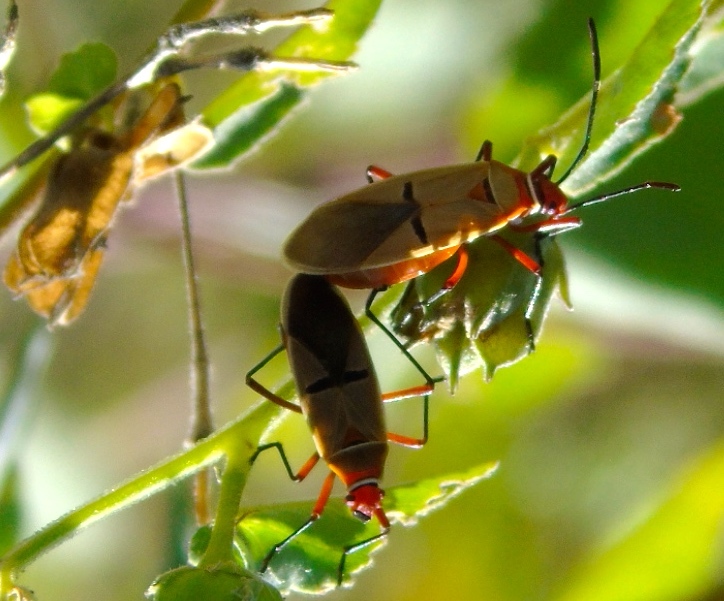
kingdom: Animalia
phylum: Arthropoda
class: Insecta
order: Hemiptera
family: Pyrrhocoridae
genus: Dysdercus
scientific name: Dysdercus bimaculatus
